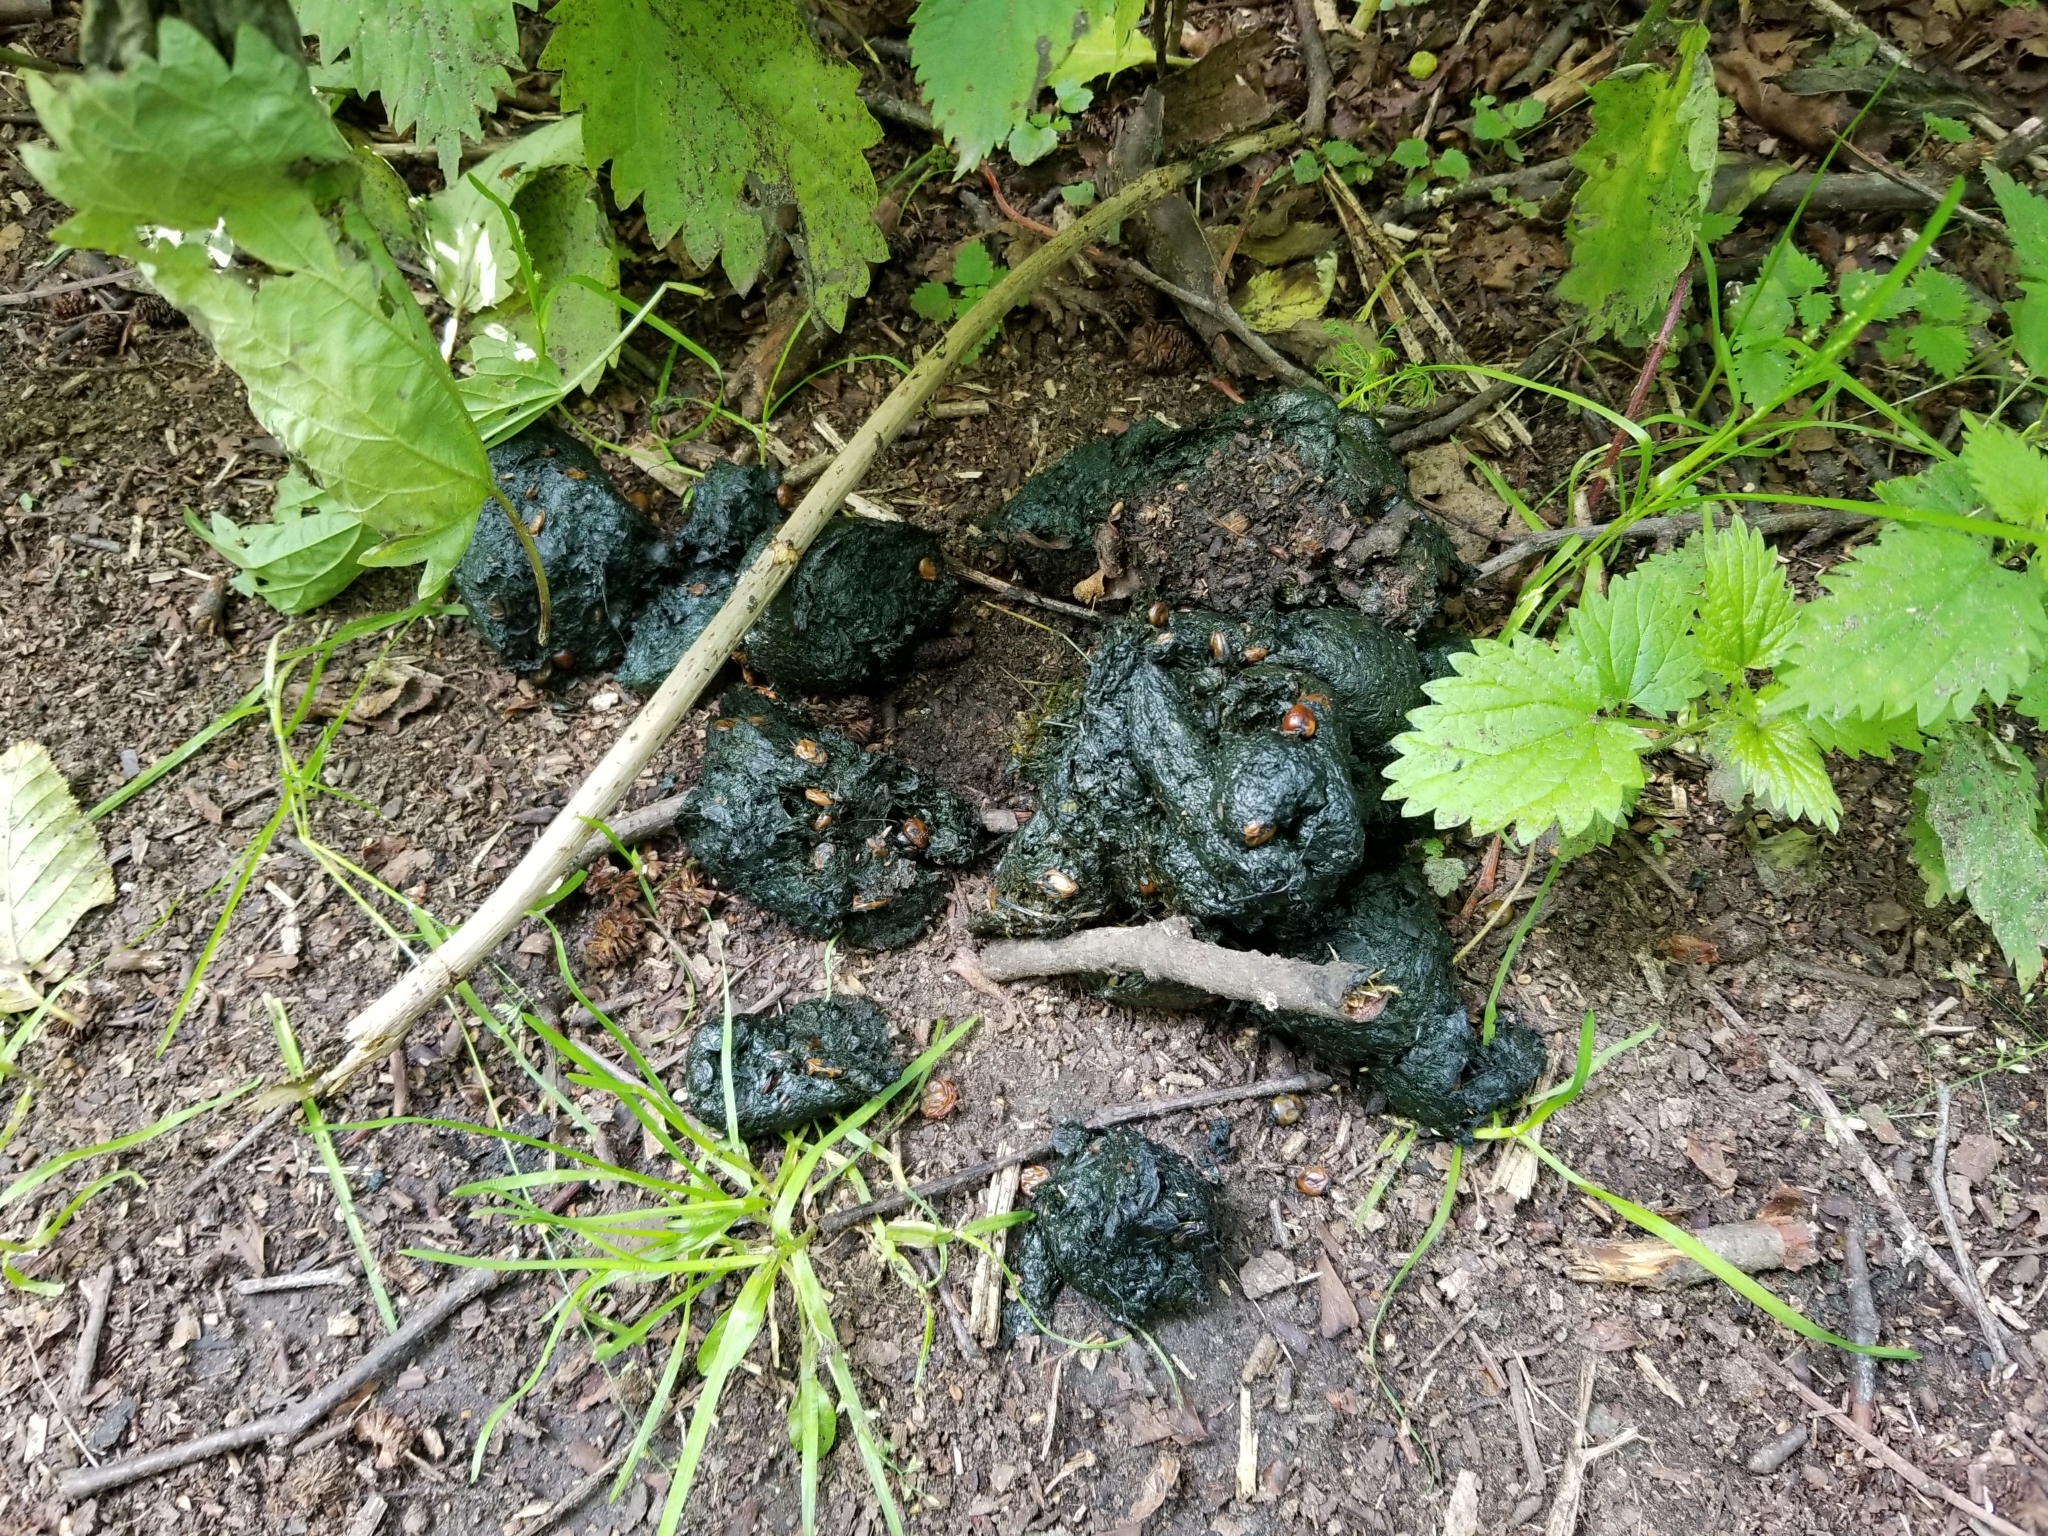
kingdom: Animalia
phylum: Chordata
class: Mammalia
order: Carnivora
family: Ursidae
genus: Ursus
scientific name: Ursus americanus
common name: American black bear
